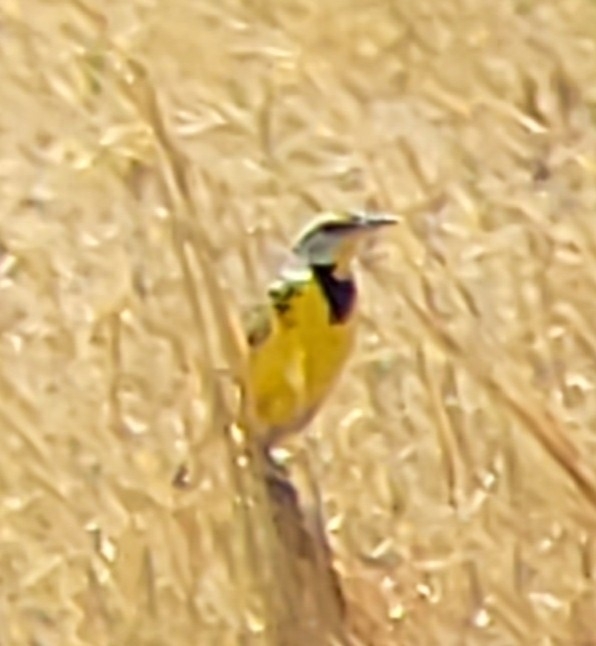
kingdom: Animalia
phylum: Chordata
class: Aves
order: Passeriformes
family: Icteridae
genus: Sturnella
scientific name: Sturnella magna
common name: Eastern meadowlark
